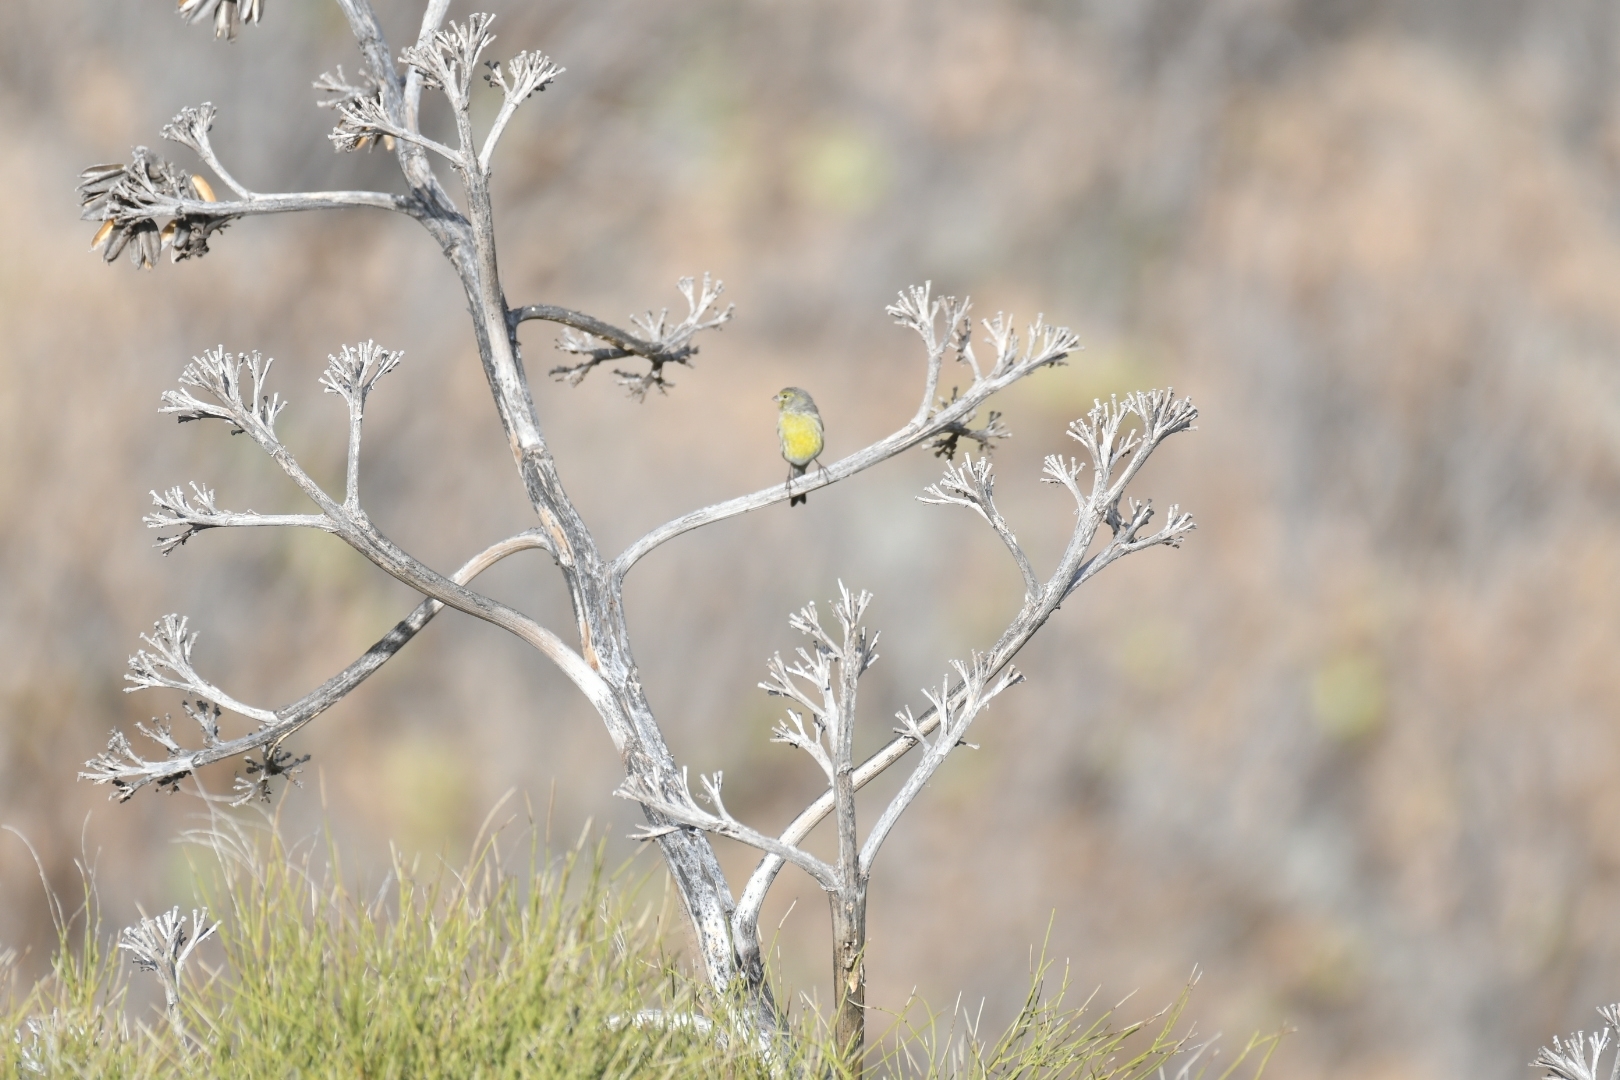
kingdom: Animalia
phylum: Chordata
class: Aves
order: Passeriformes
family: Fringillidae
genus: Serinus
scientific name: Serinus canaria
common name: Atlantic canary
